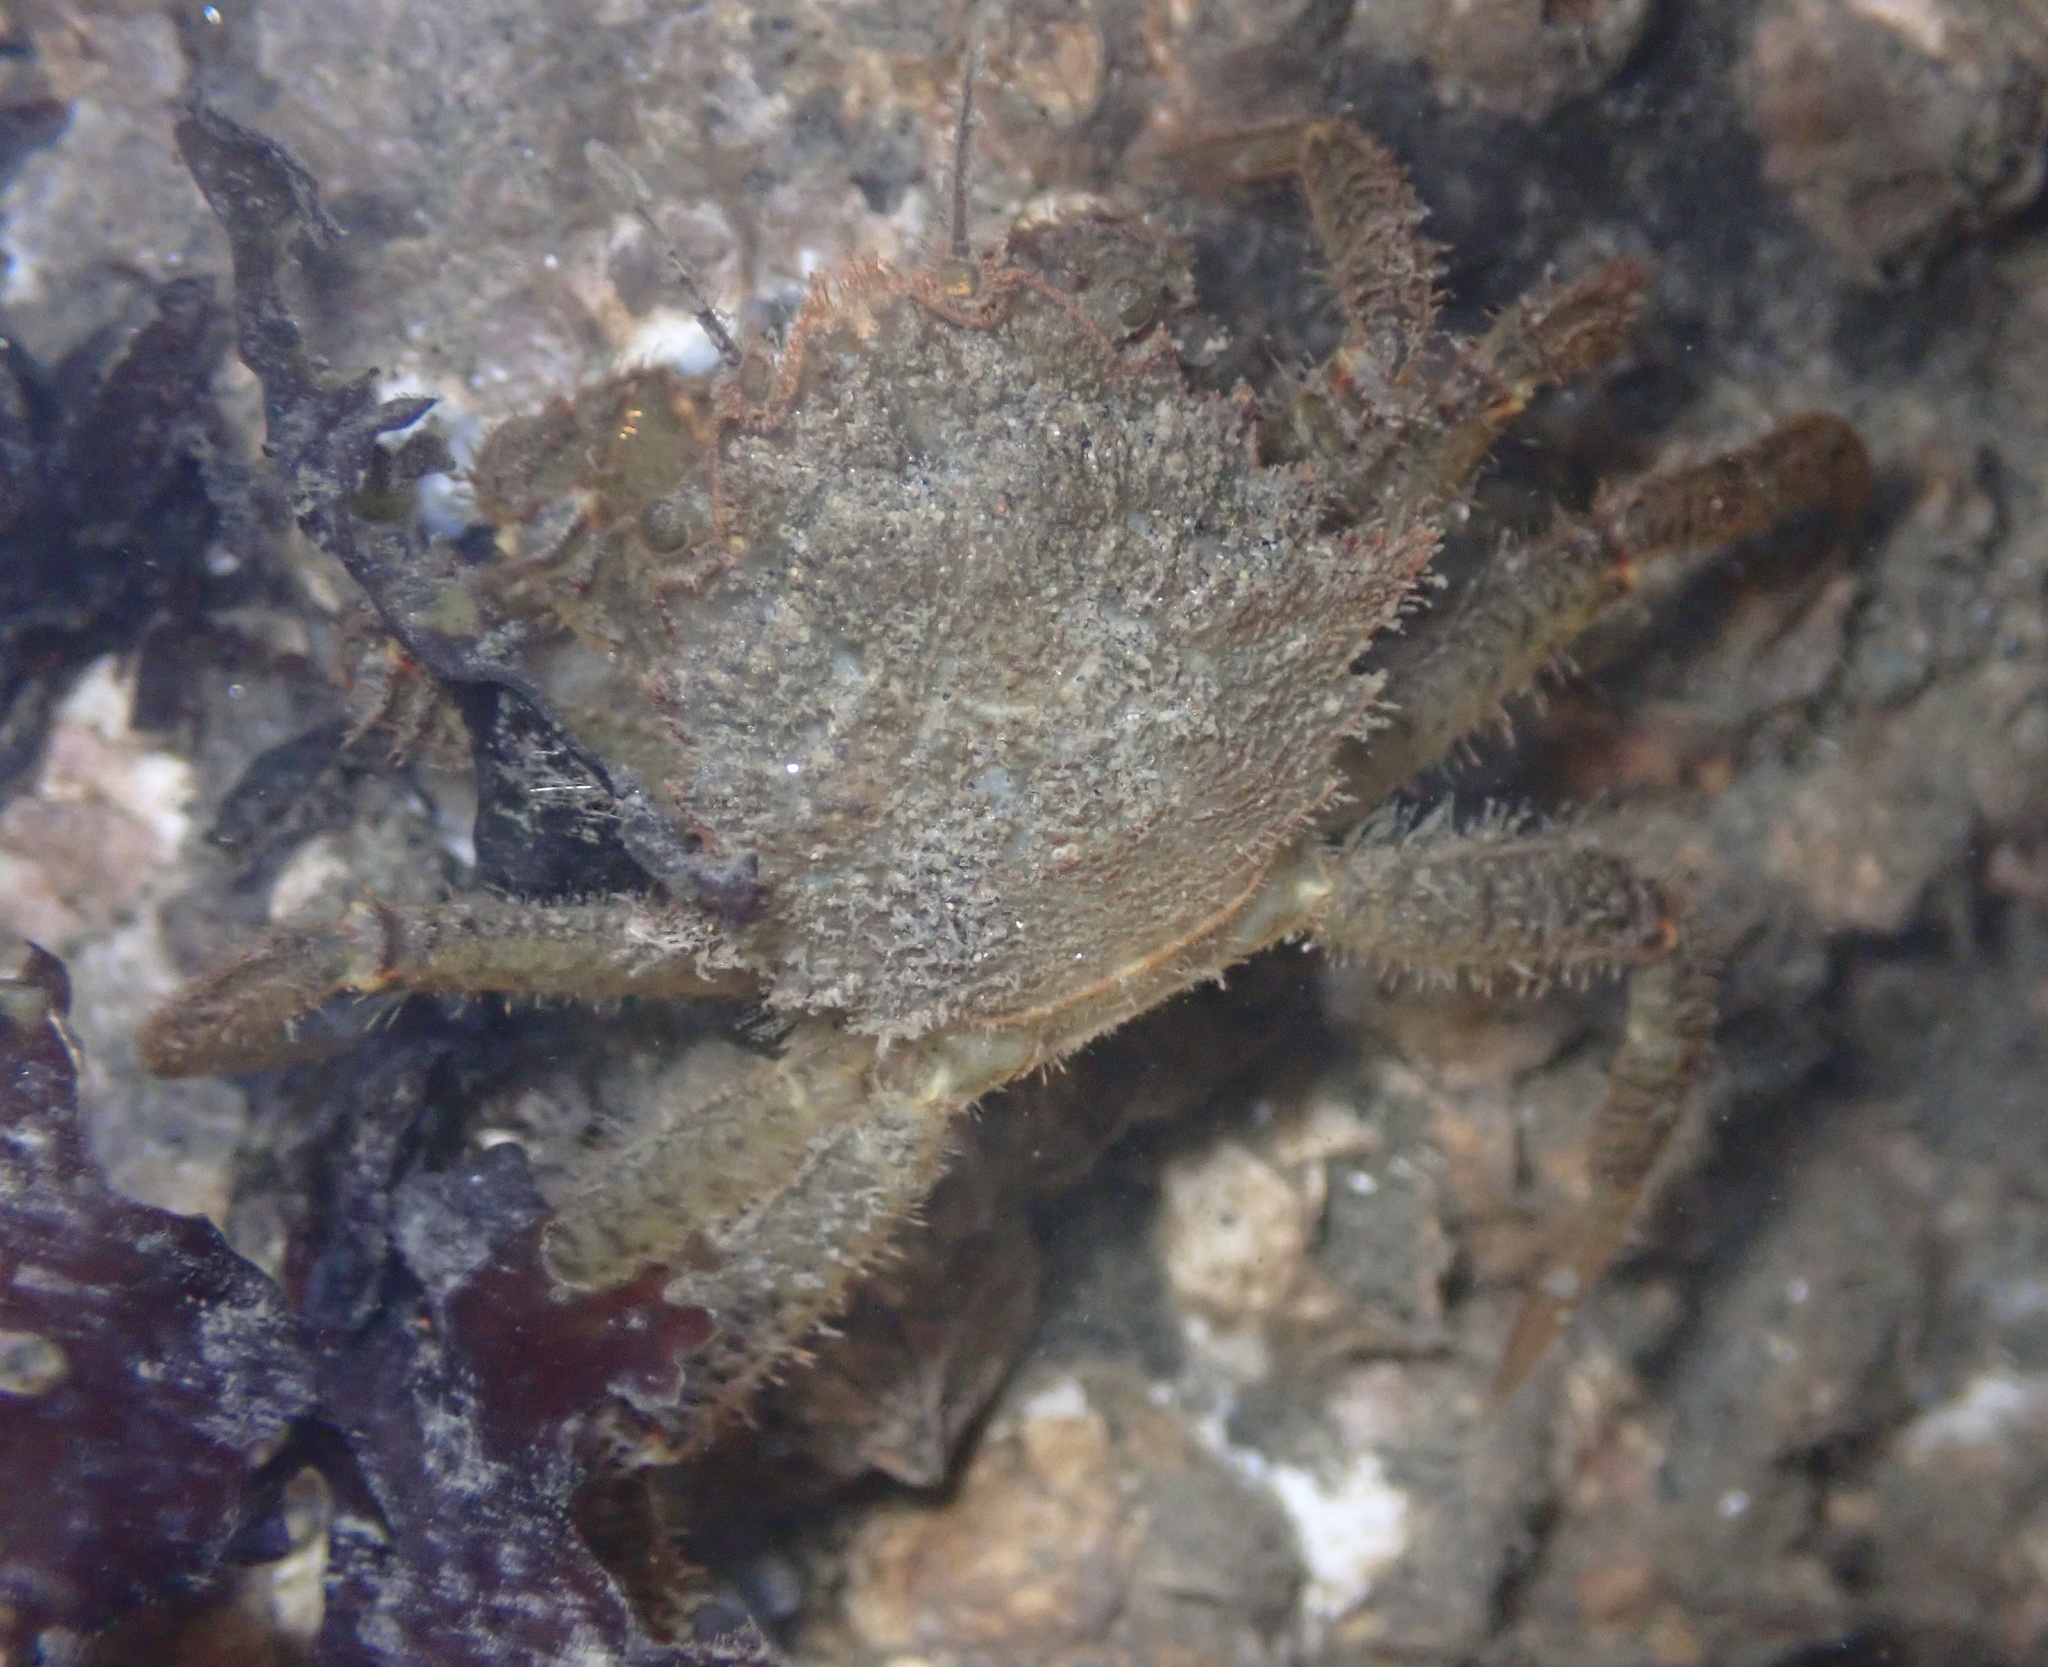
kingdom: Animalia
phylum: Arthropoda
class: Malacostraca
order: Decapoda
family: Cheiragonidae
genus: Telmessus
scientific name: Telmessus cheiragonus
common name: Helmet crab
